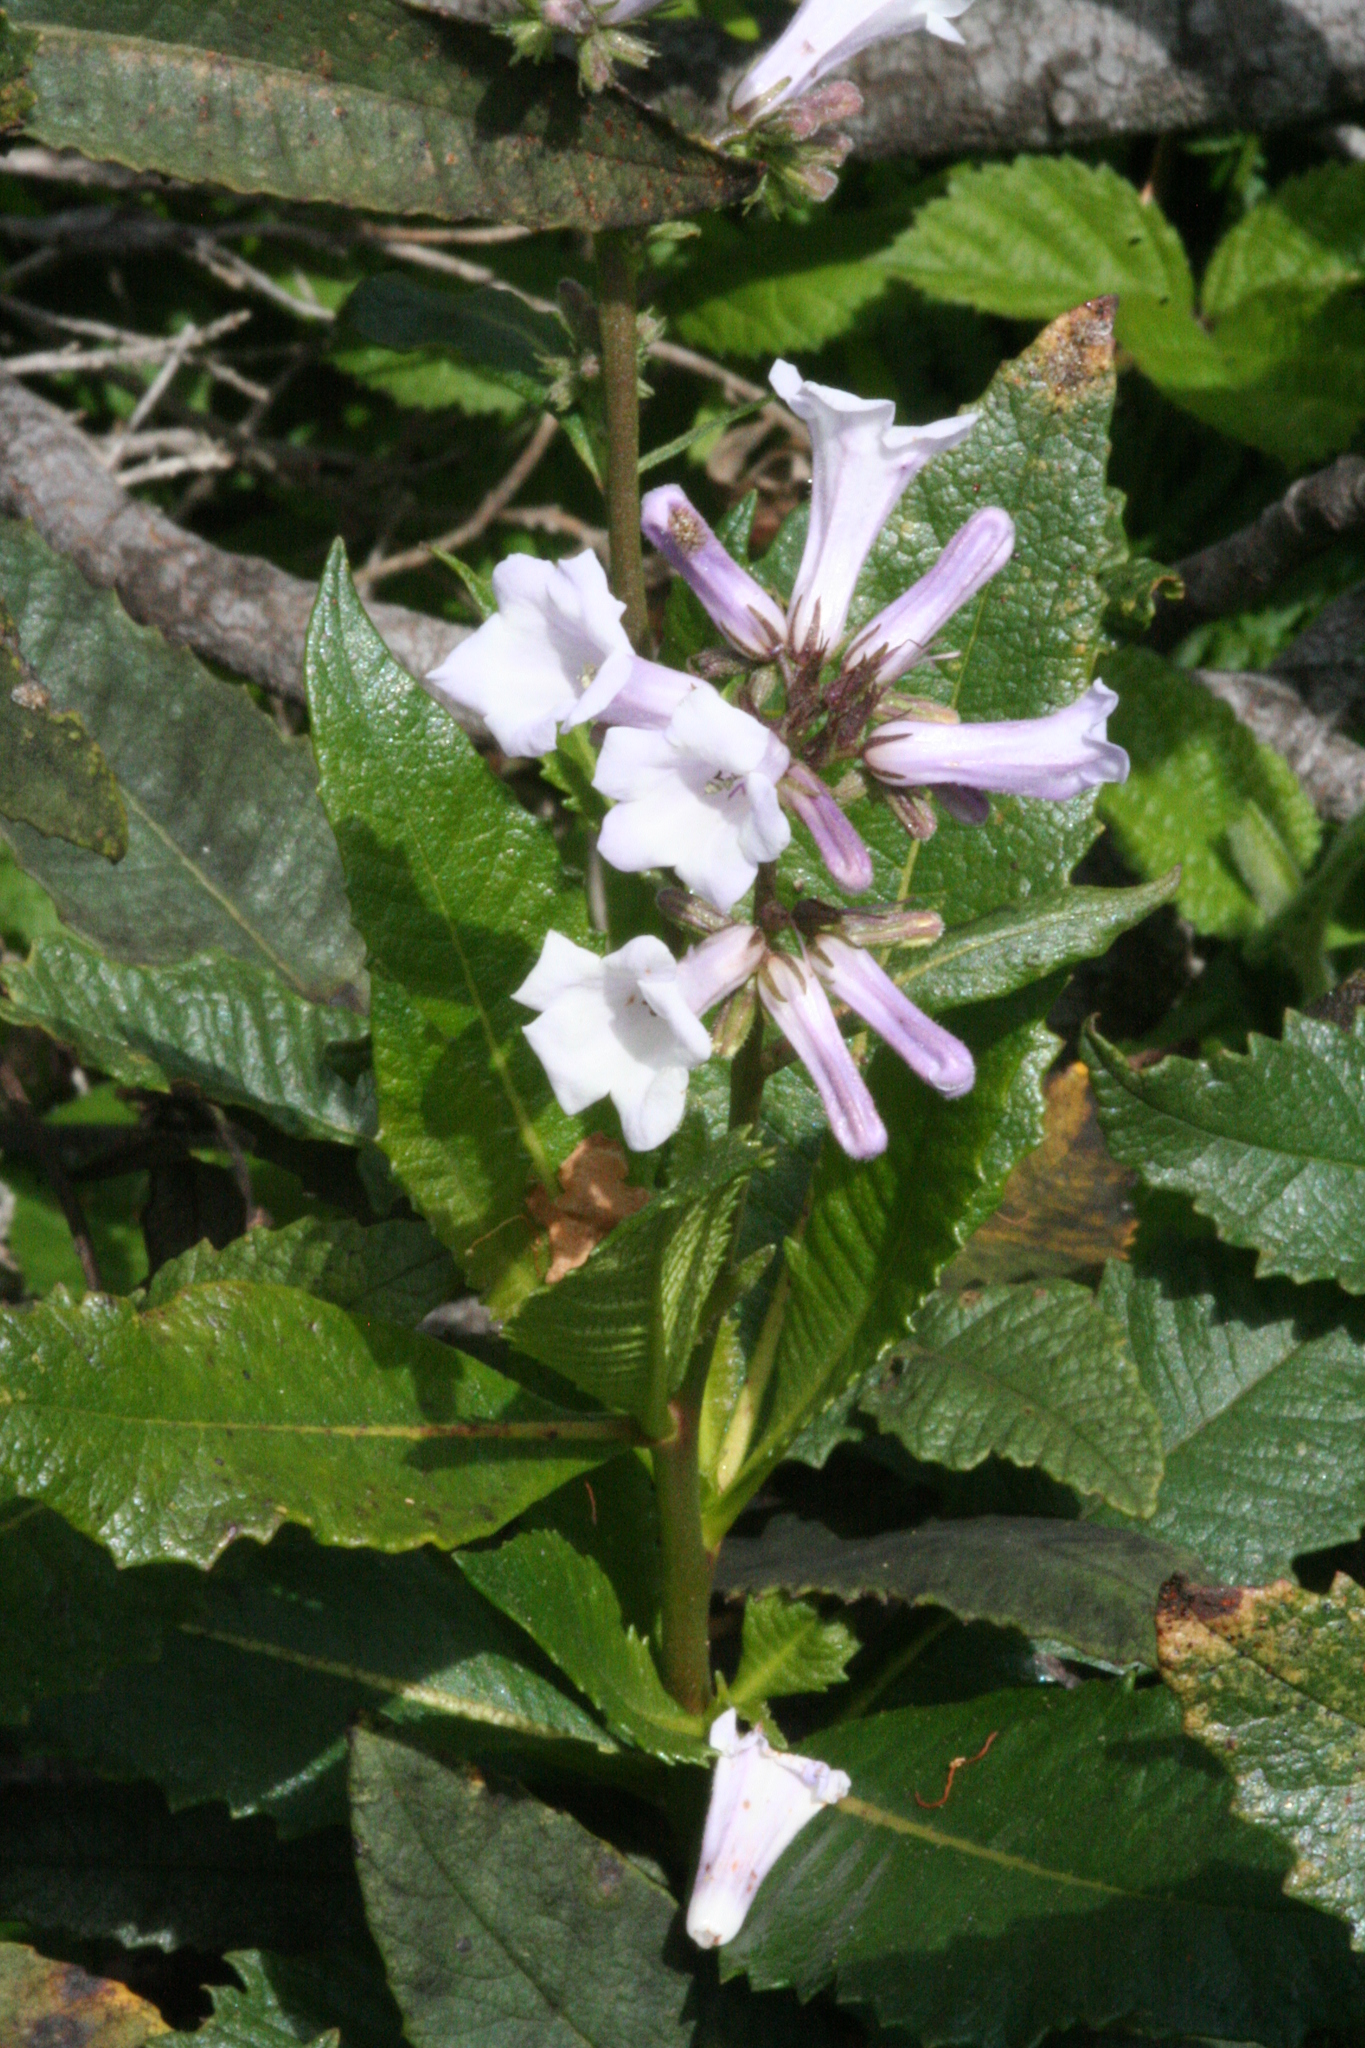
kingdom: Plantae
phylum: Tracheophyta
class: Magnoliopsida
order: Boraginales
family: Namaceae
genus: Eriodictyon
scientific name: Eriodictyon californicum
